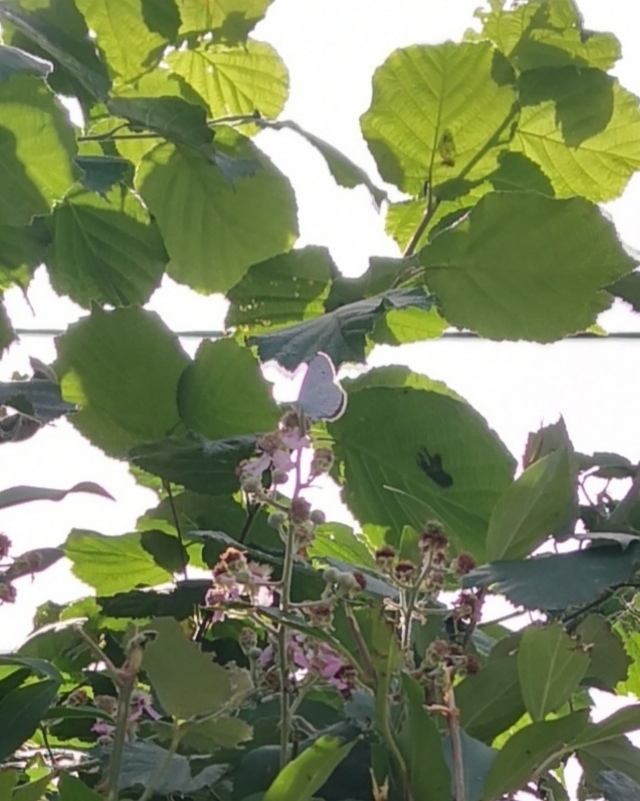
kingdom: Animalia
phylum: Arthropoda
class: Insecta
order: Lepidoptera
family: Lycaenidae
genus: Celastrina
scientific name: Celastrina argiolus
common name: Holly blue
